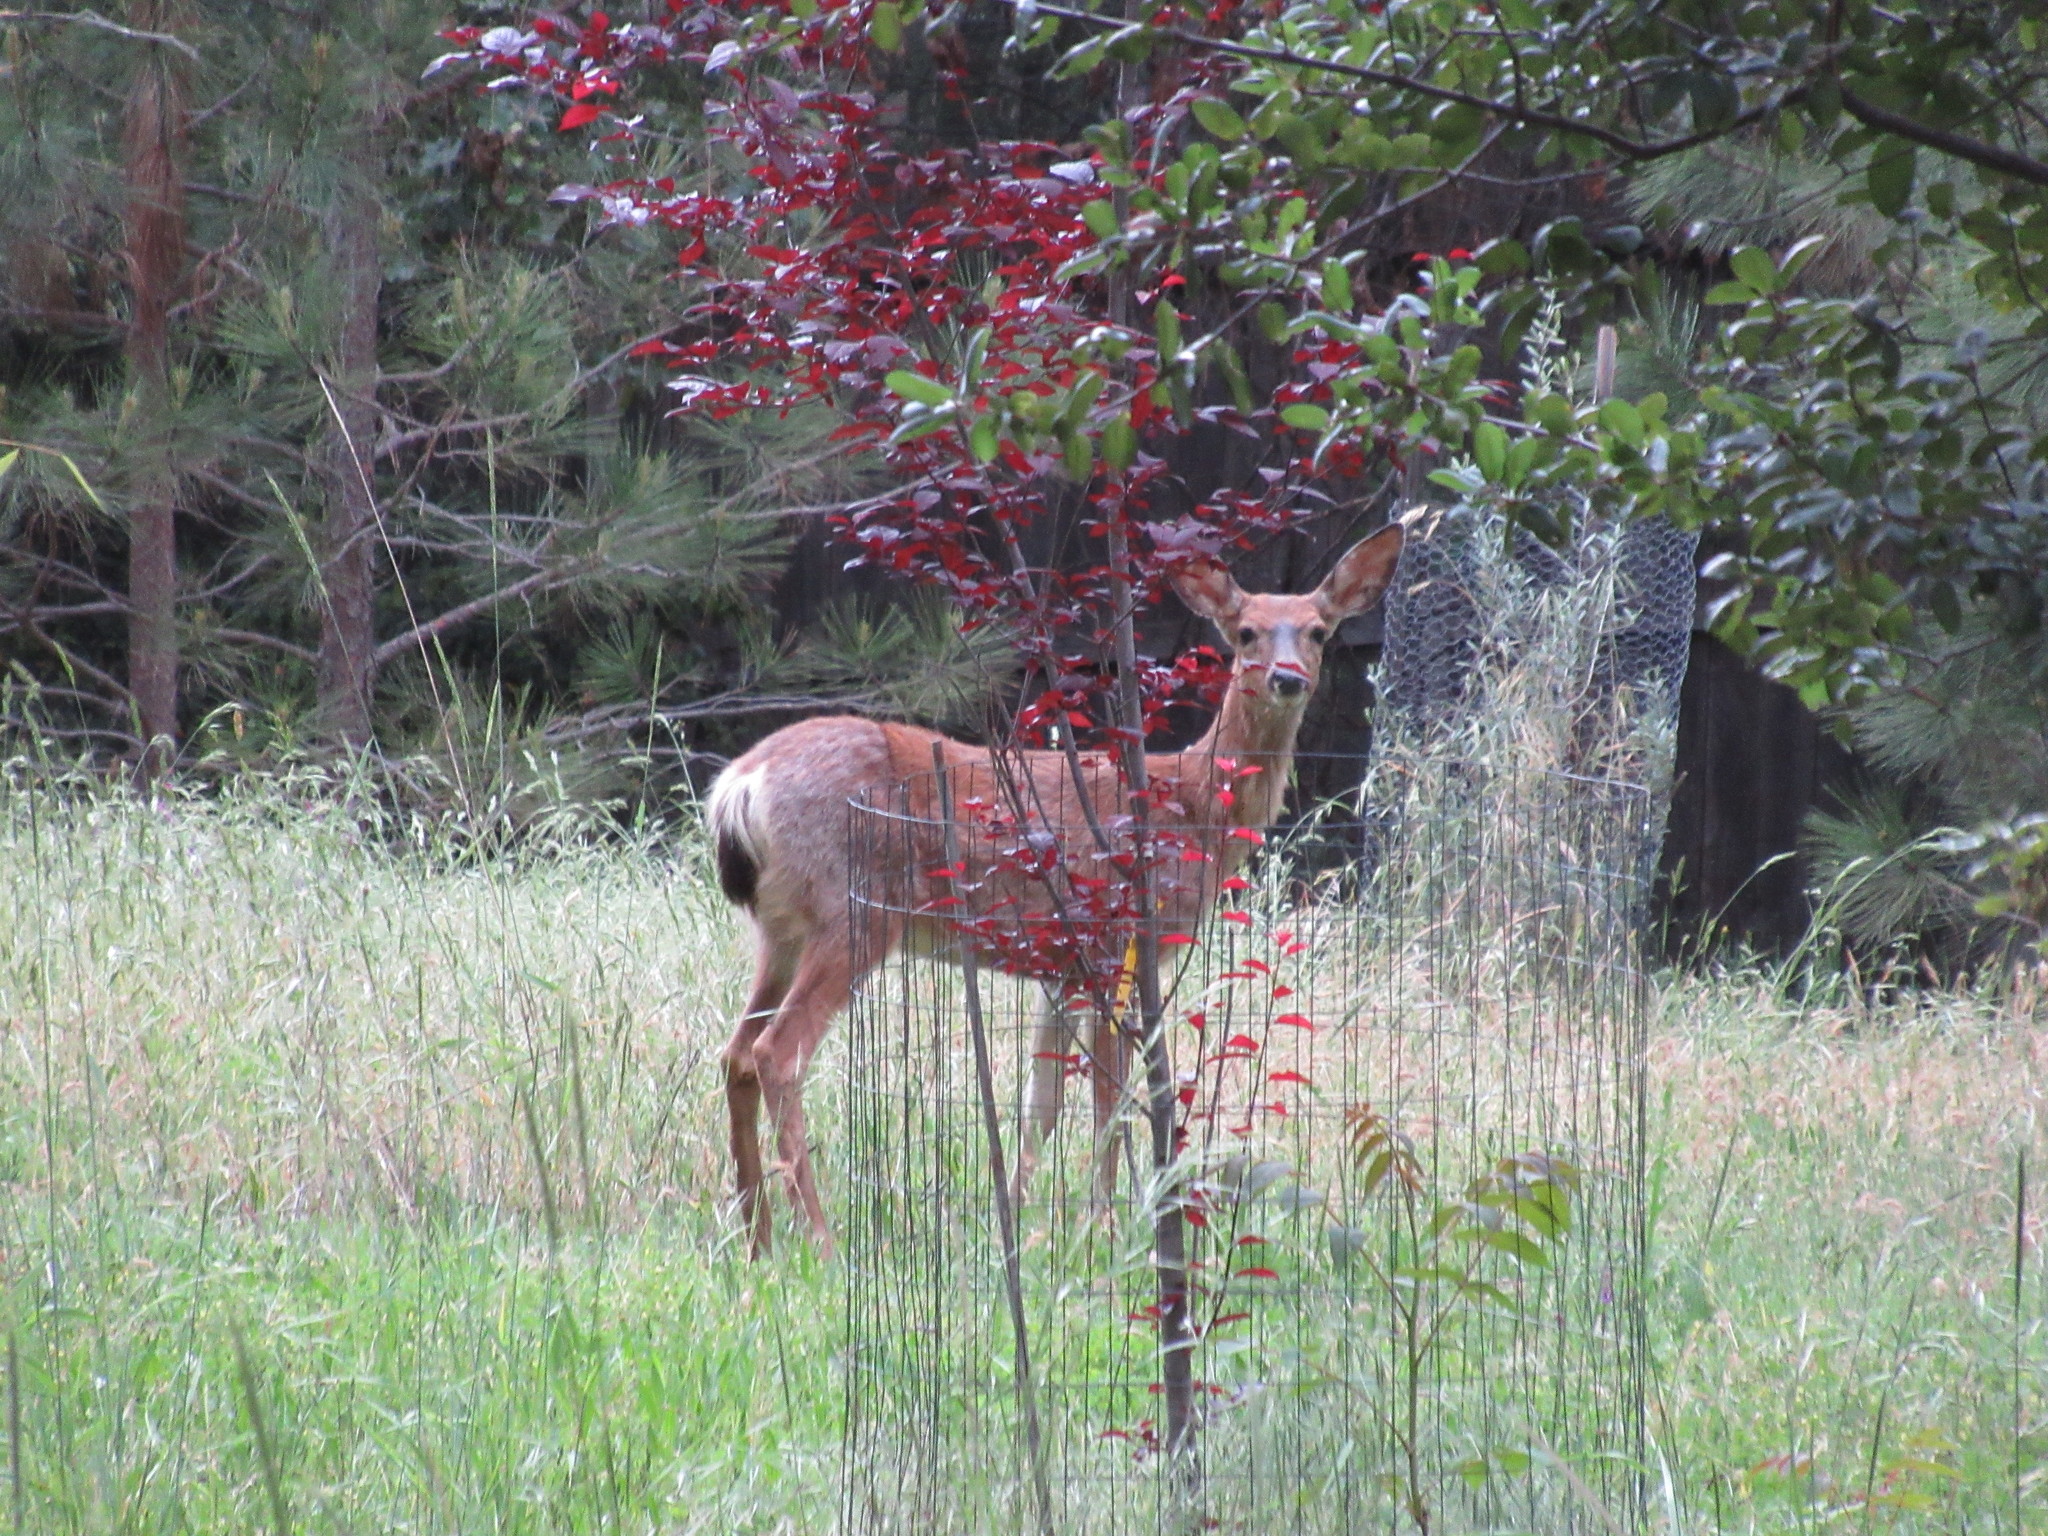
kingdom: Animalia
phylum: Chordata
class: Mammalia
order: Artiodactyla
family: Cervidae
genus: Odocoileus
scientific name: Odocoileus hemionus
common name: Mule deer
